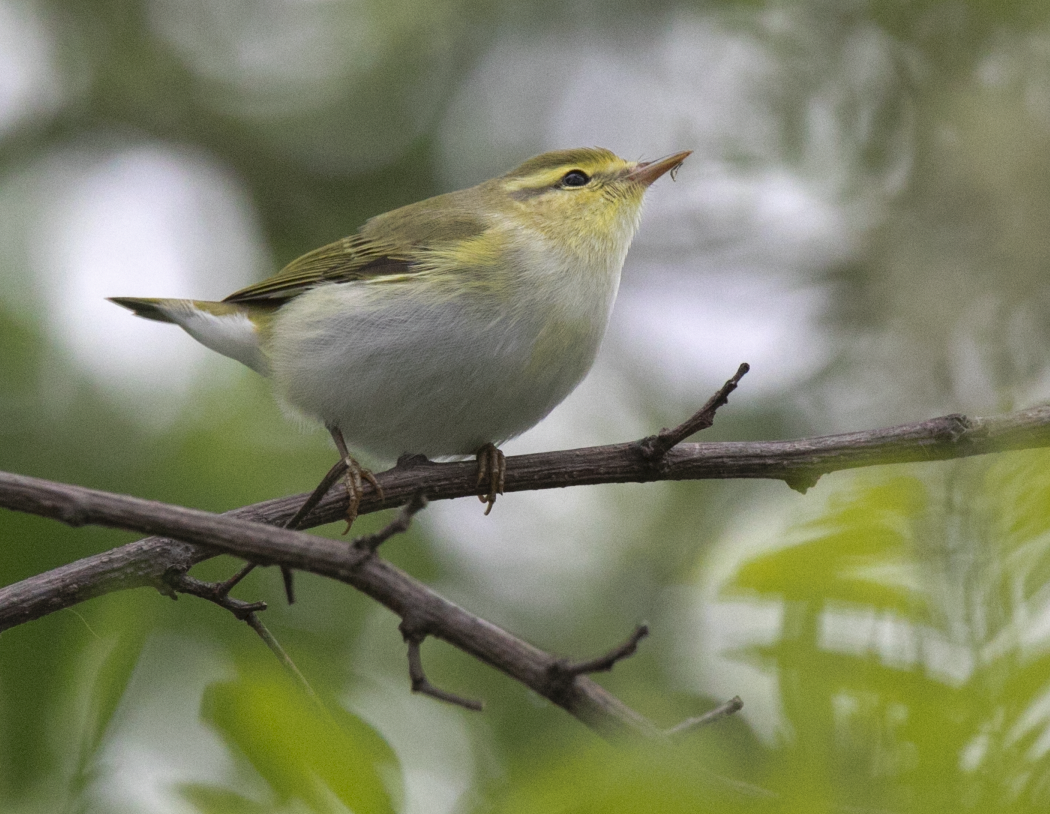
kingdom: Animalia
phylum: Chordata
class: Aves
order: Passeriformes
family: Phylloscopidae
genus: Phylloscopus
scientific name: Phylloscopus sibillatrix
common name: Wood warbler
